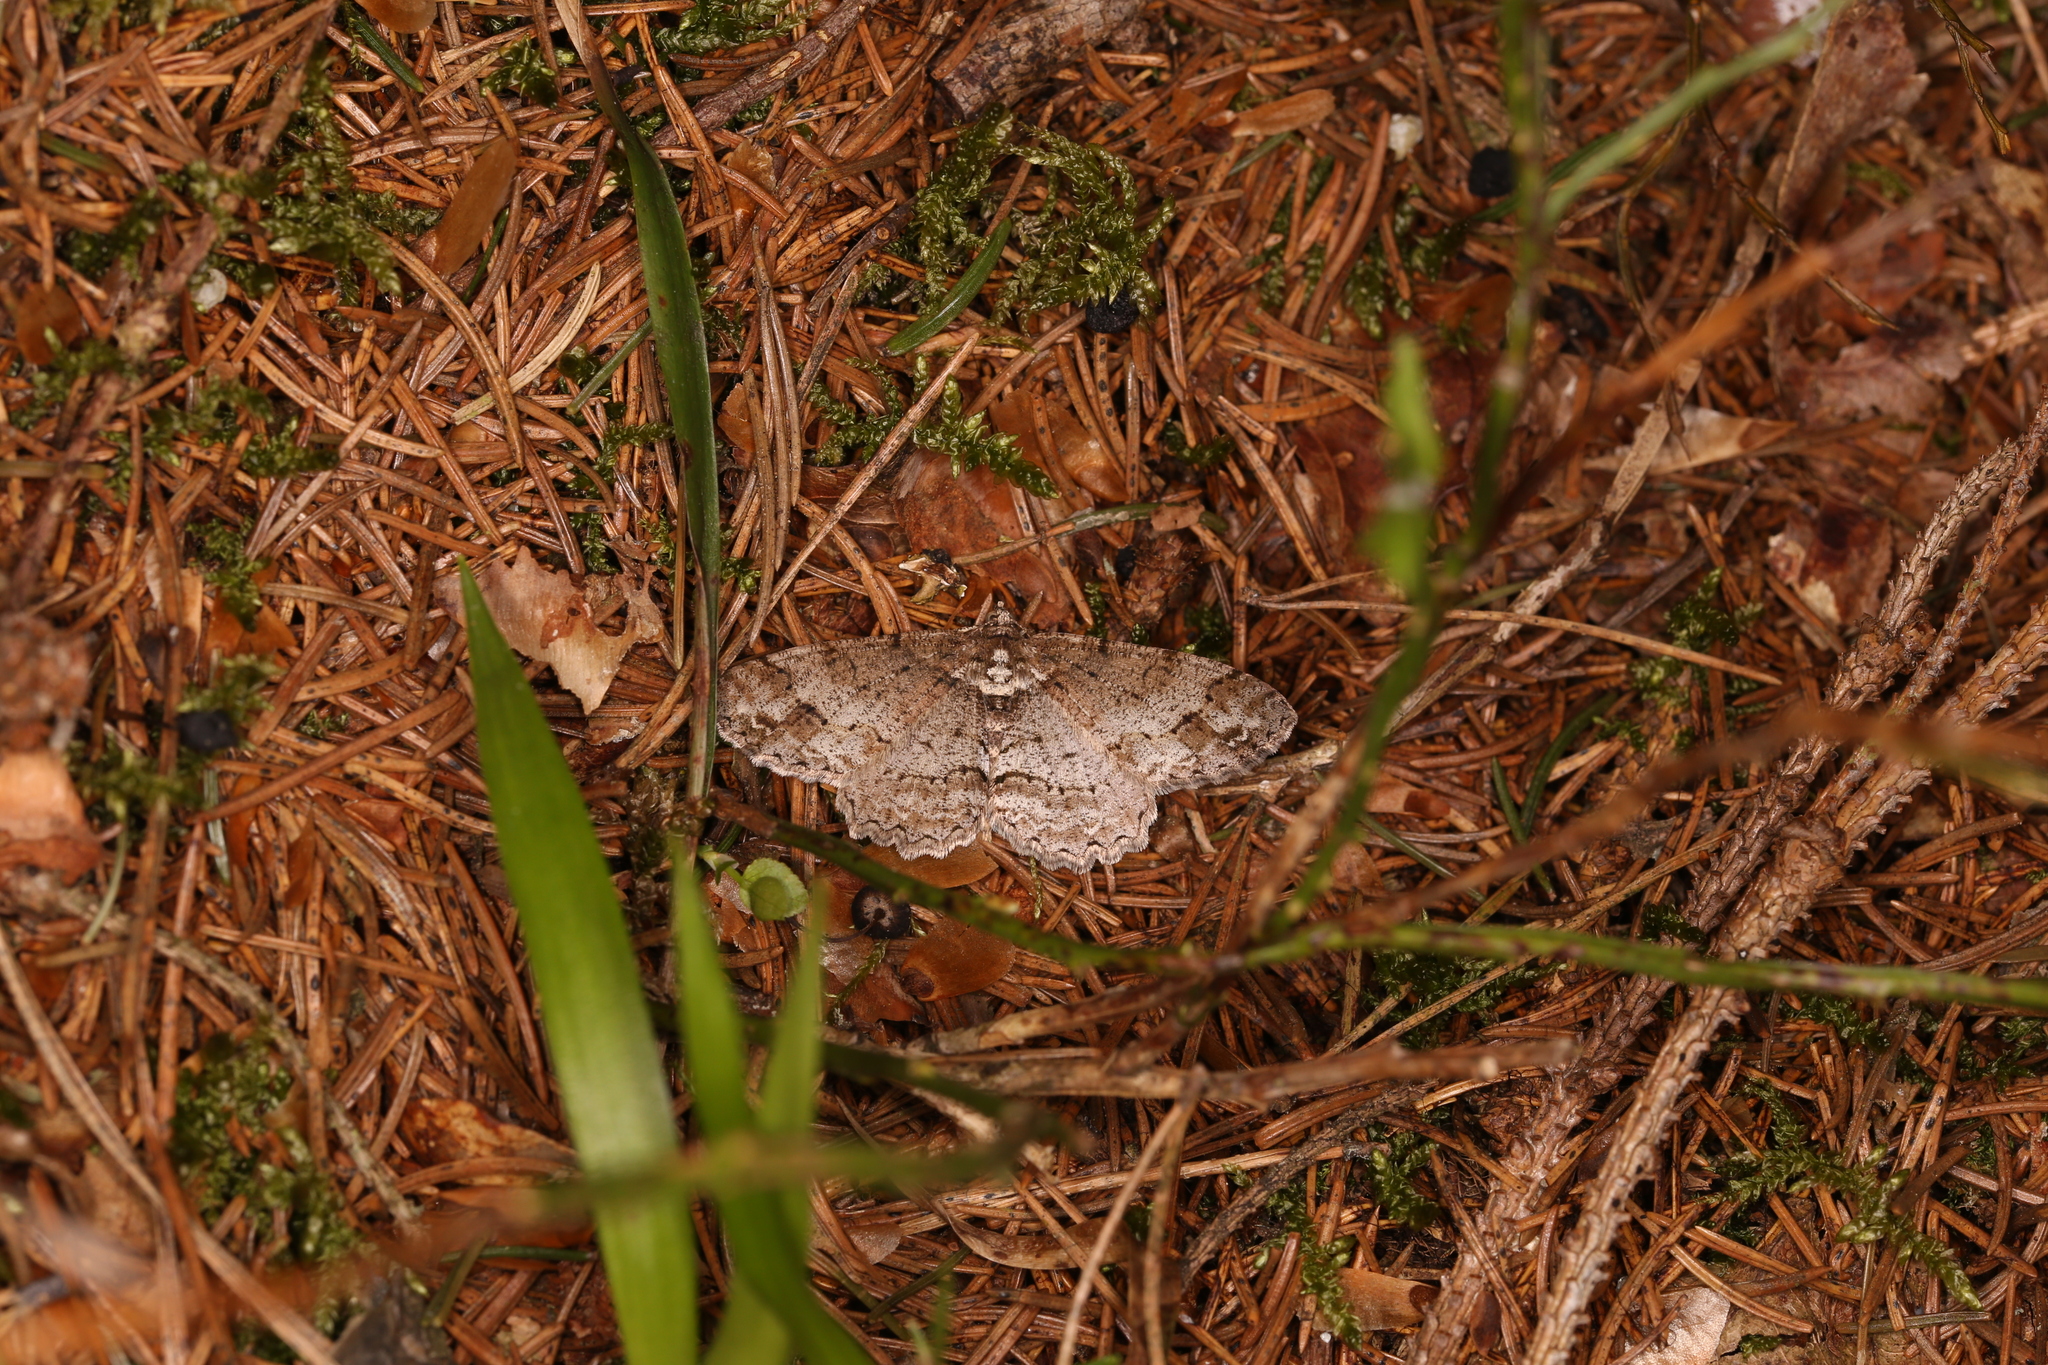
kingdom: Animalia
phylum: Arthropoda
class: Insecta
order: Lepidoptera
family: Geometridae
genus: Paradarisa
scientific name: Paradarisa consonaria
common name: Square spot
